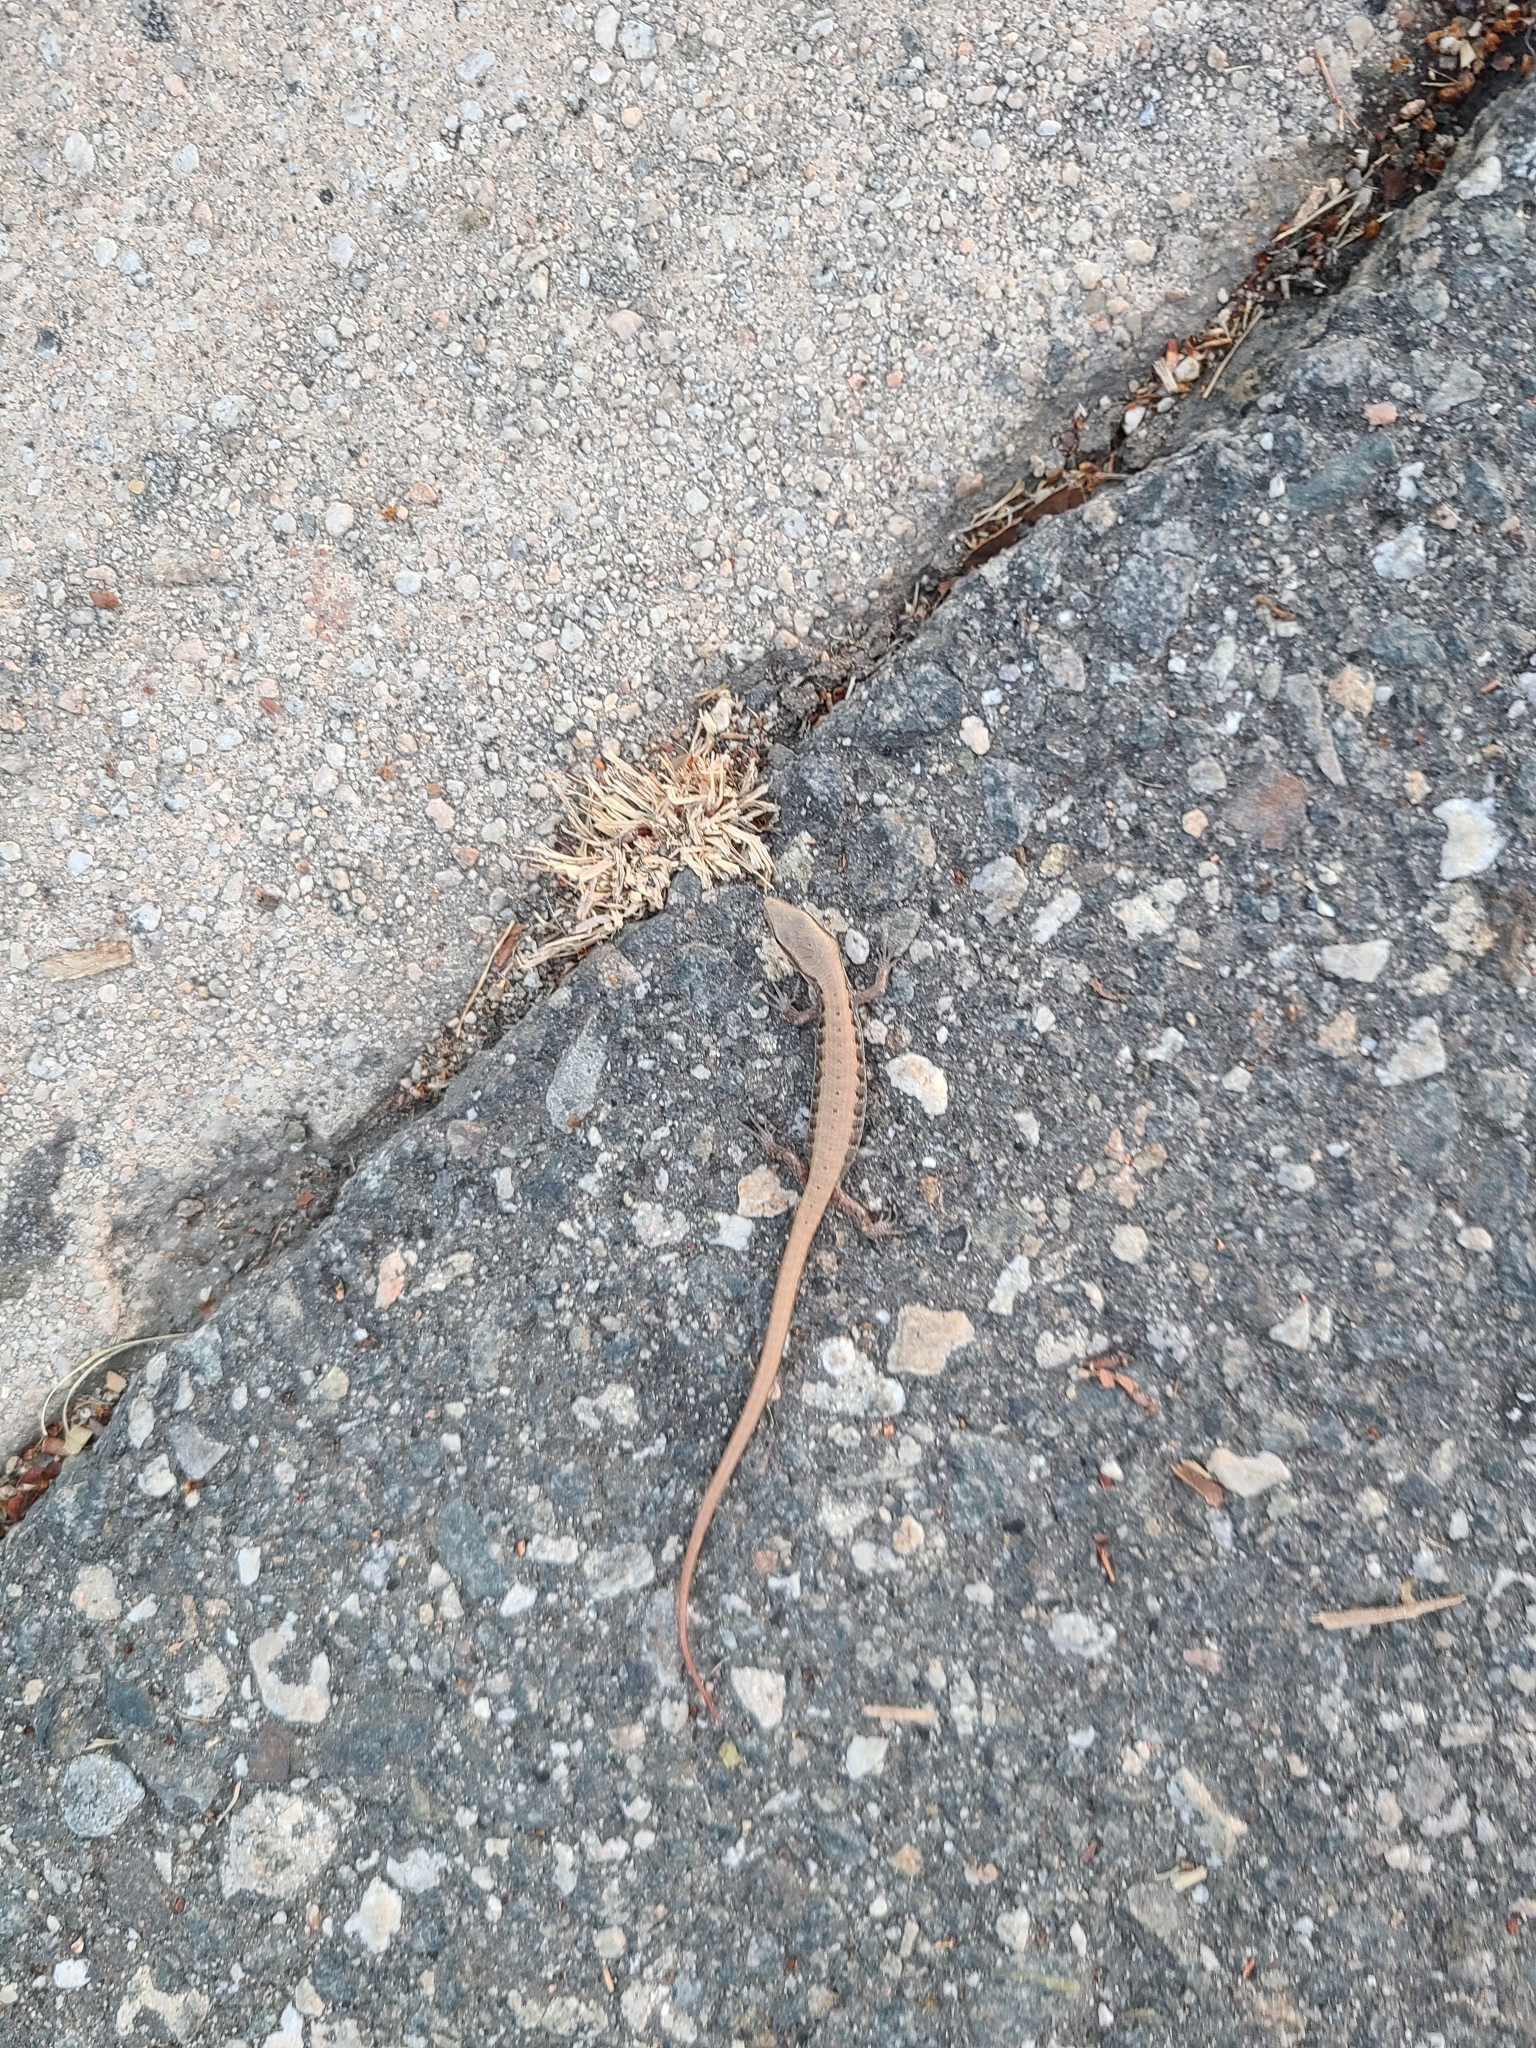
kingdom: Animalia
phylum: Chordata
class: Squamata
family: Anguidae
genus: Elgaria
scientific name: Elgaria multicarinata
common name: Southern alligator lizard
